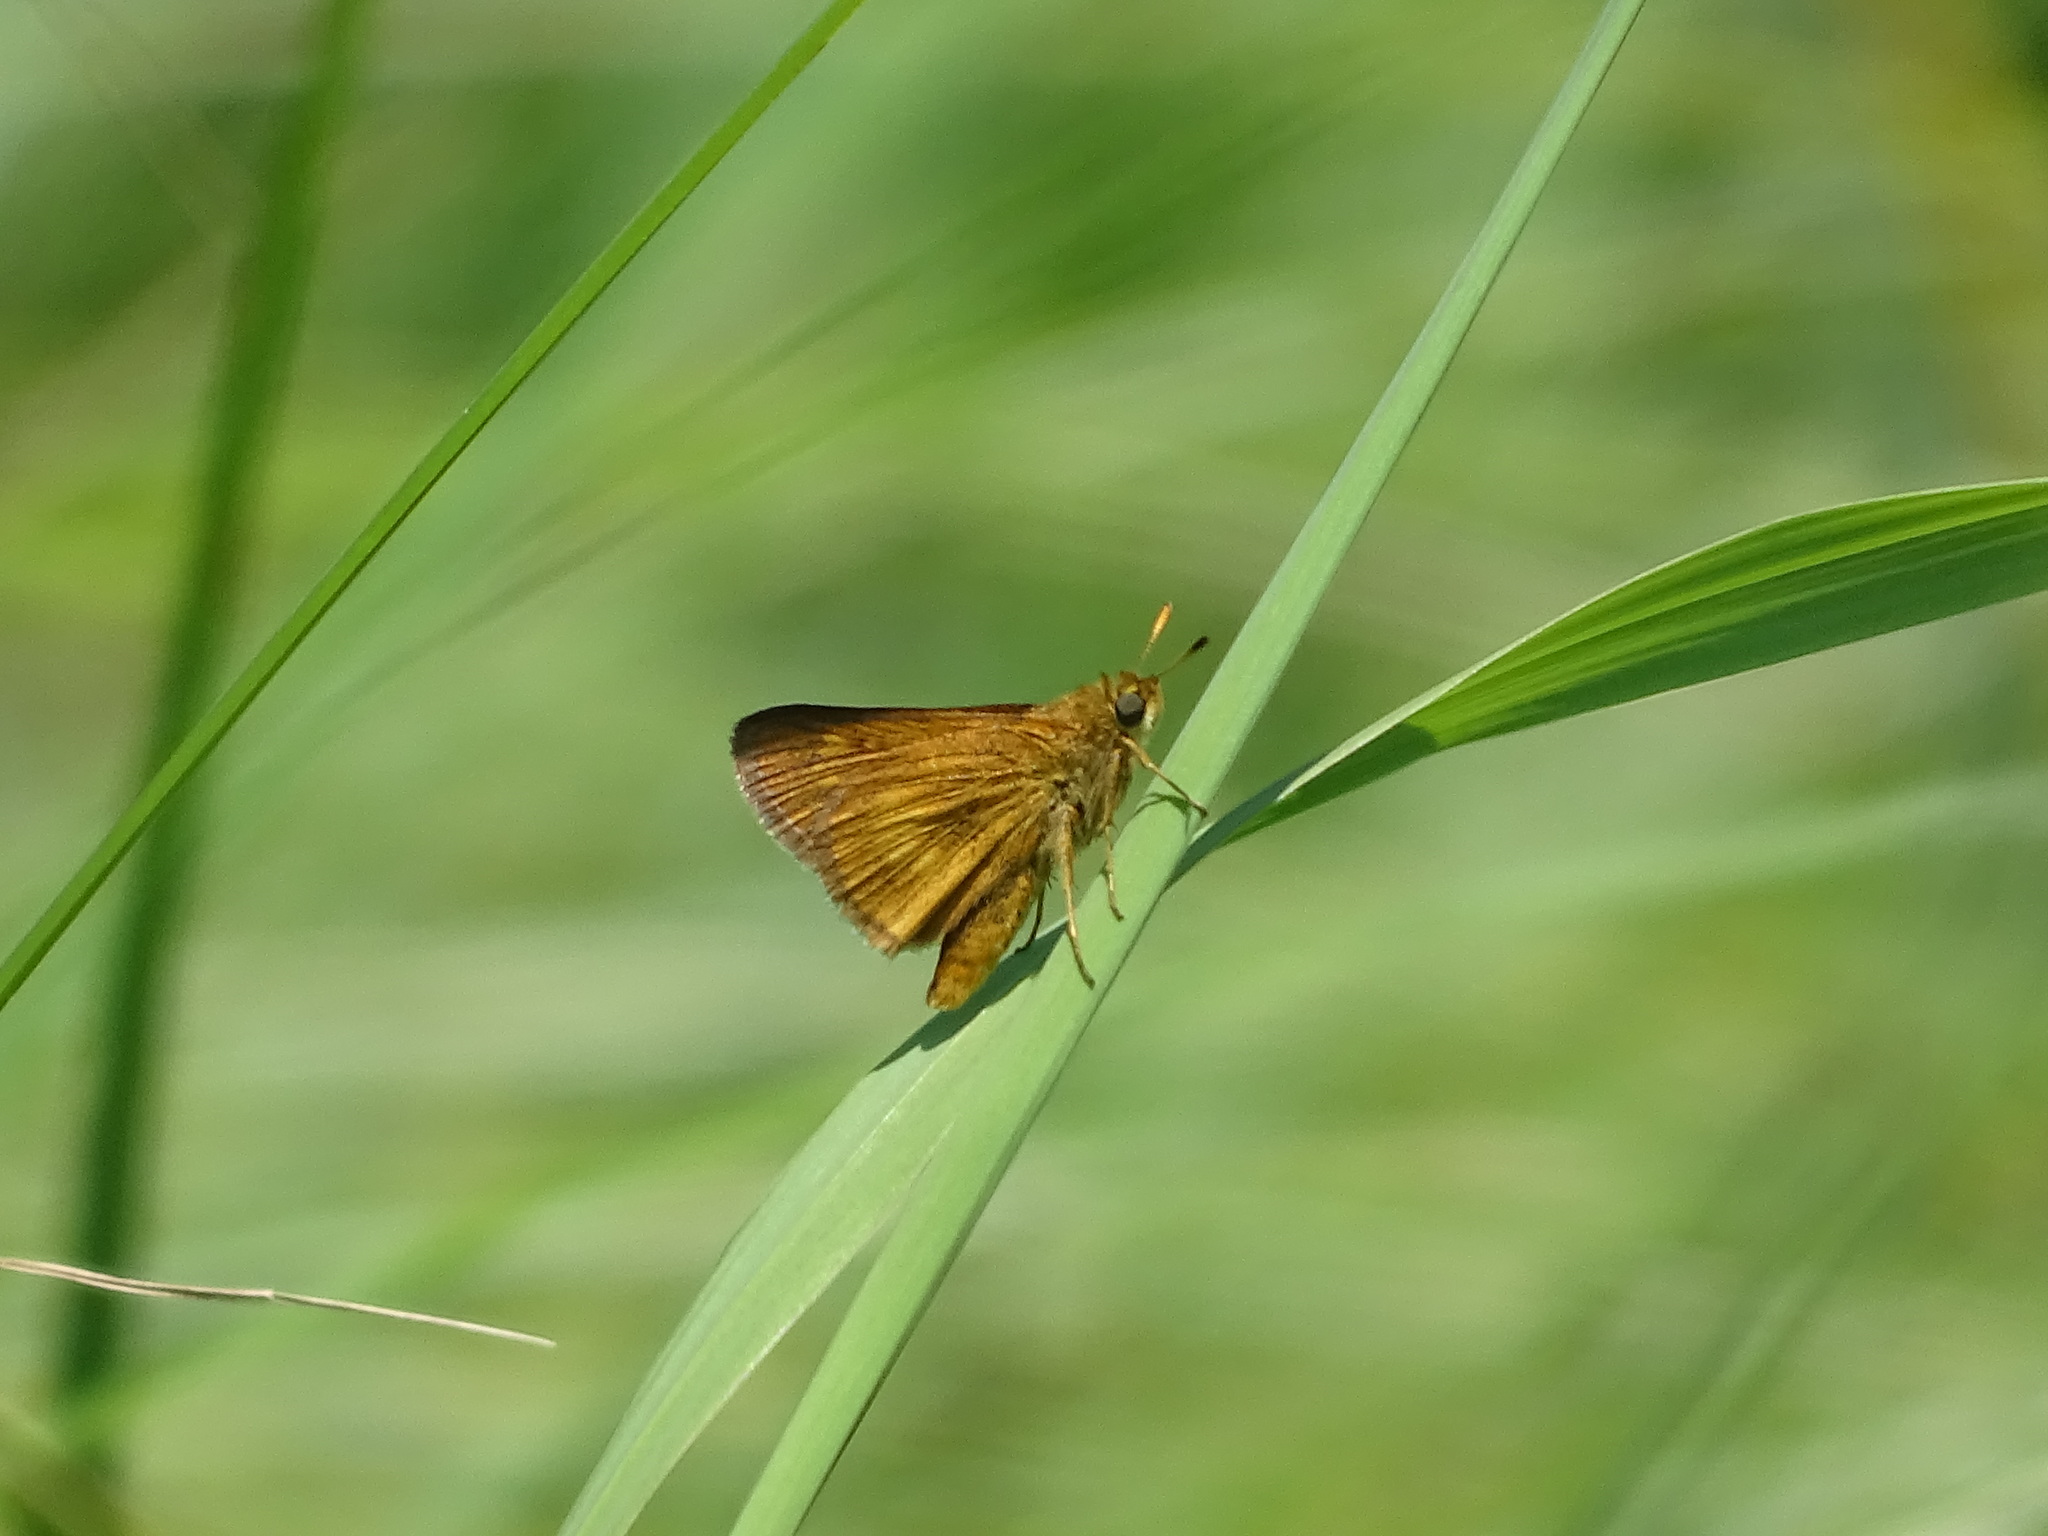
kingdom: Animalia
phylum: Arthropoda
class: Insecta
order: Lepidoptera
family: Hesperiidae
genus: Euphyes
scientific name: Euphyes conspicua
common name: Black dash
